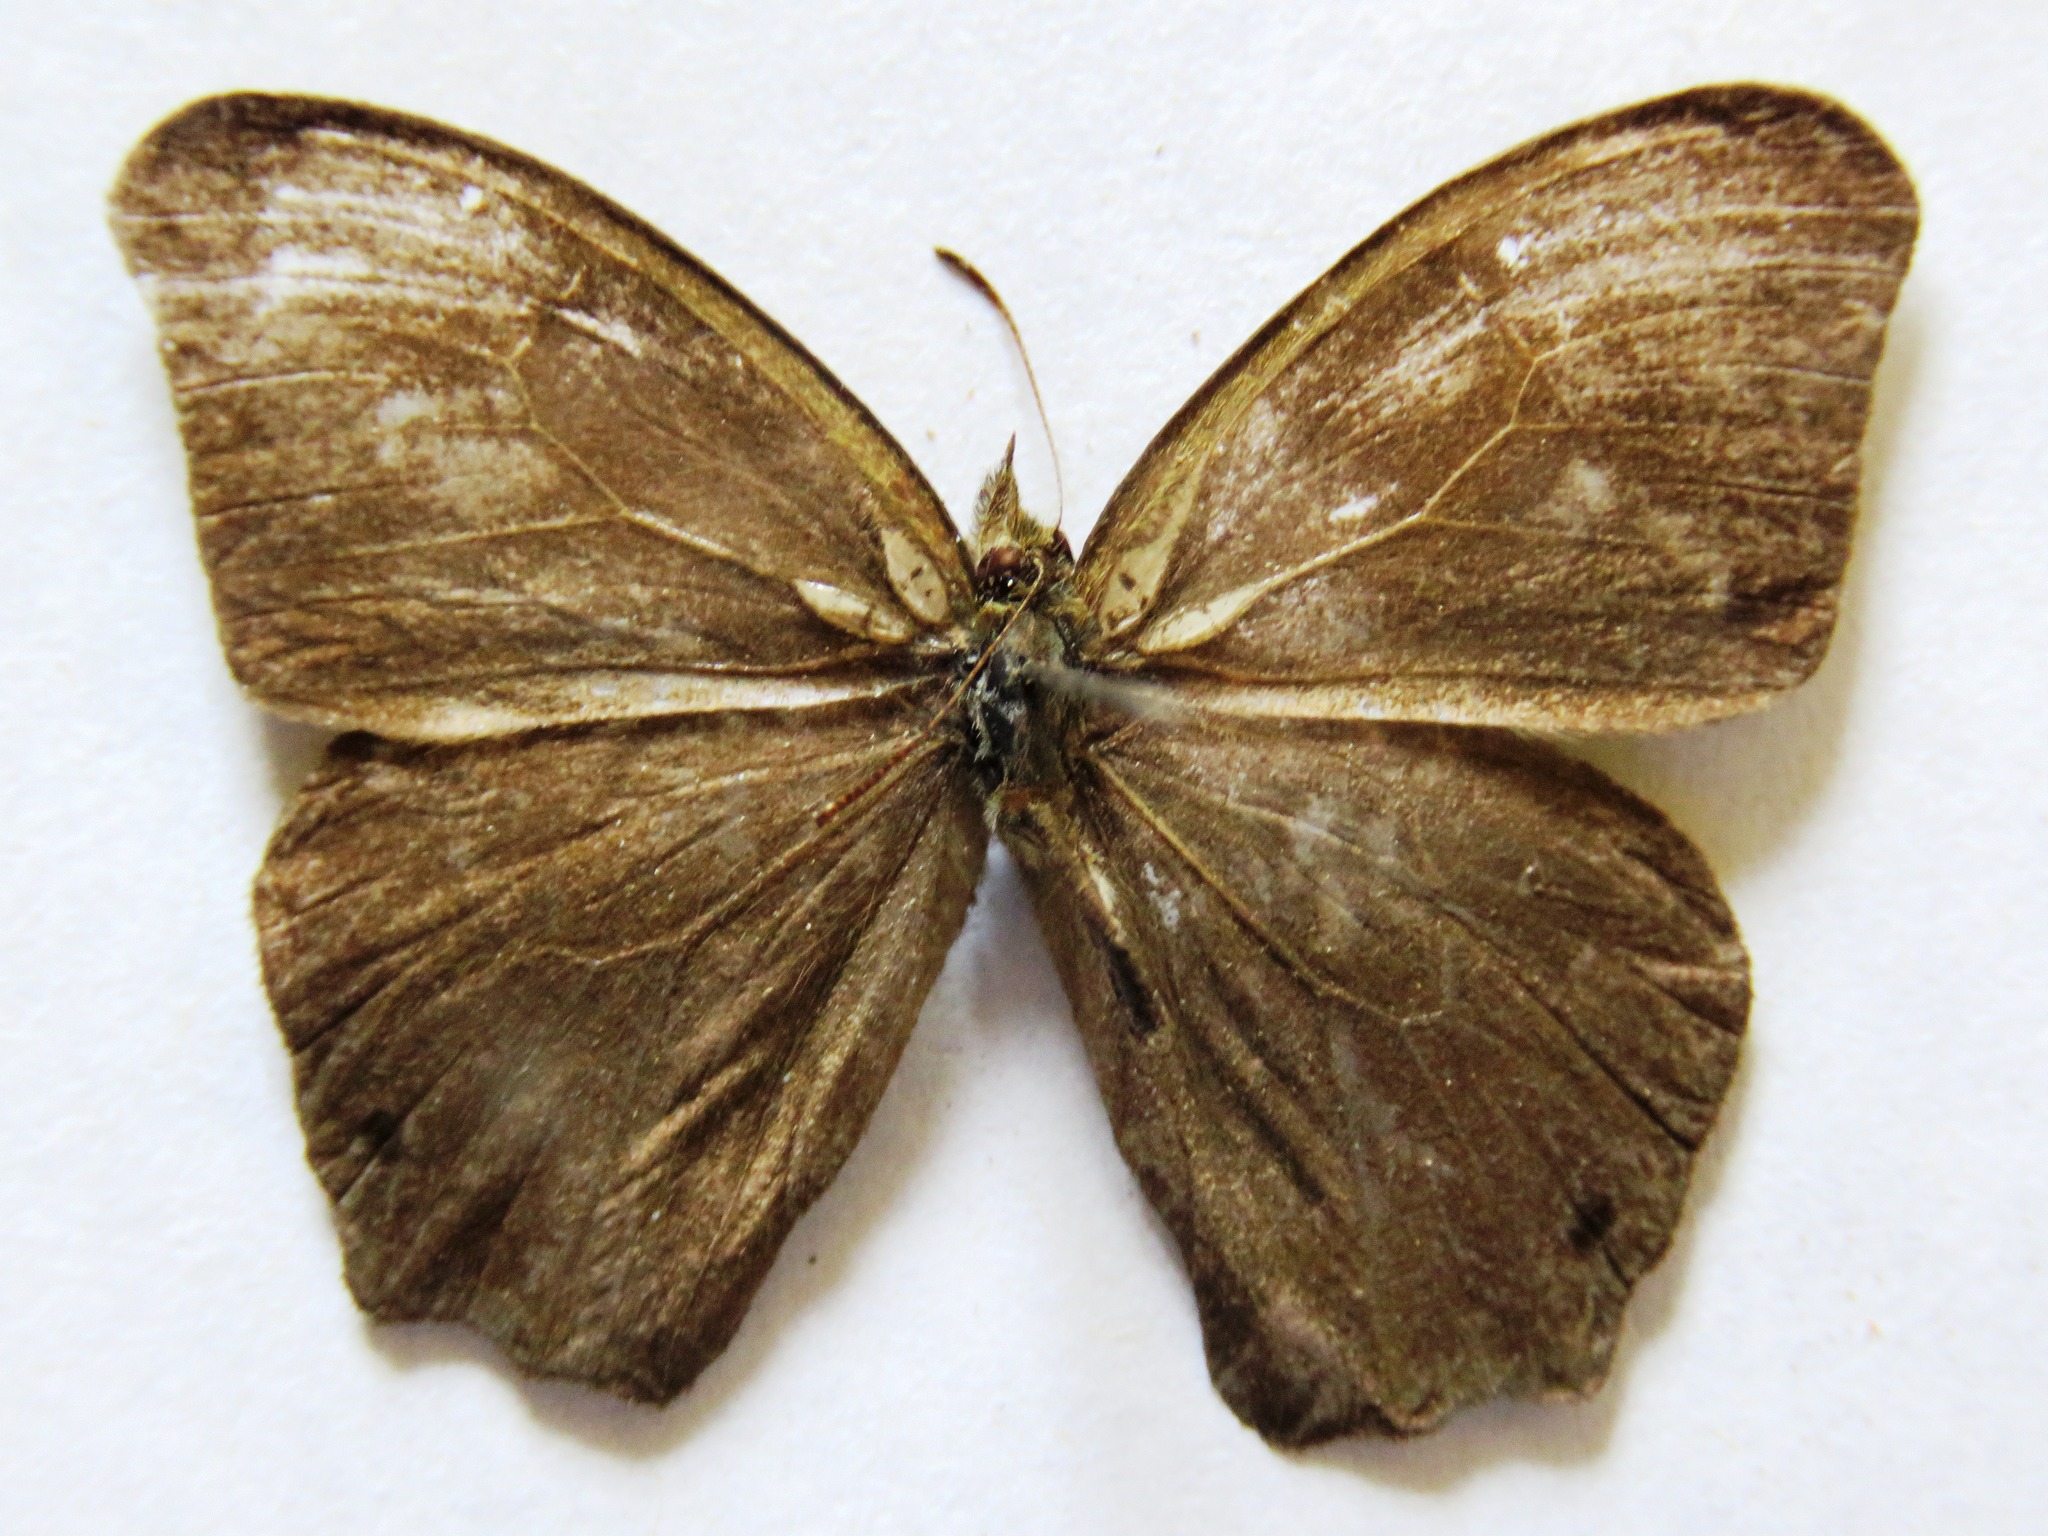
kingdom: Animalia
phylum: Arthropoda
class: Insecta
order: Lepidoptera
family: Nymphalidae
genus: Euptychia
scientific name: Euptychia Cyllopsis hedemanni
